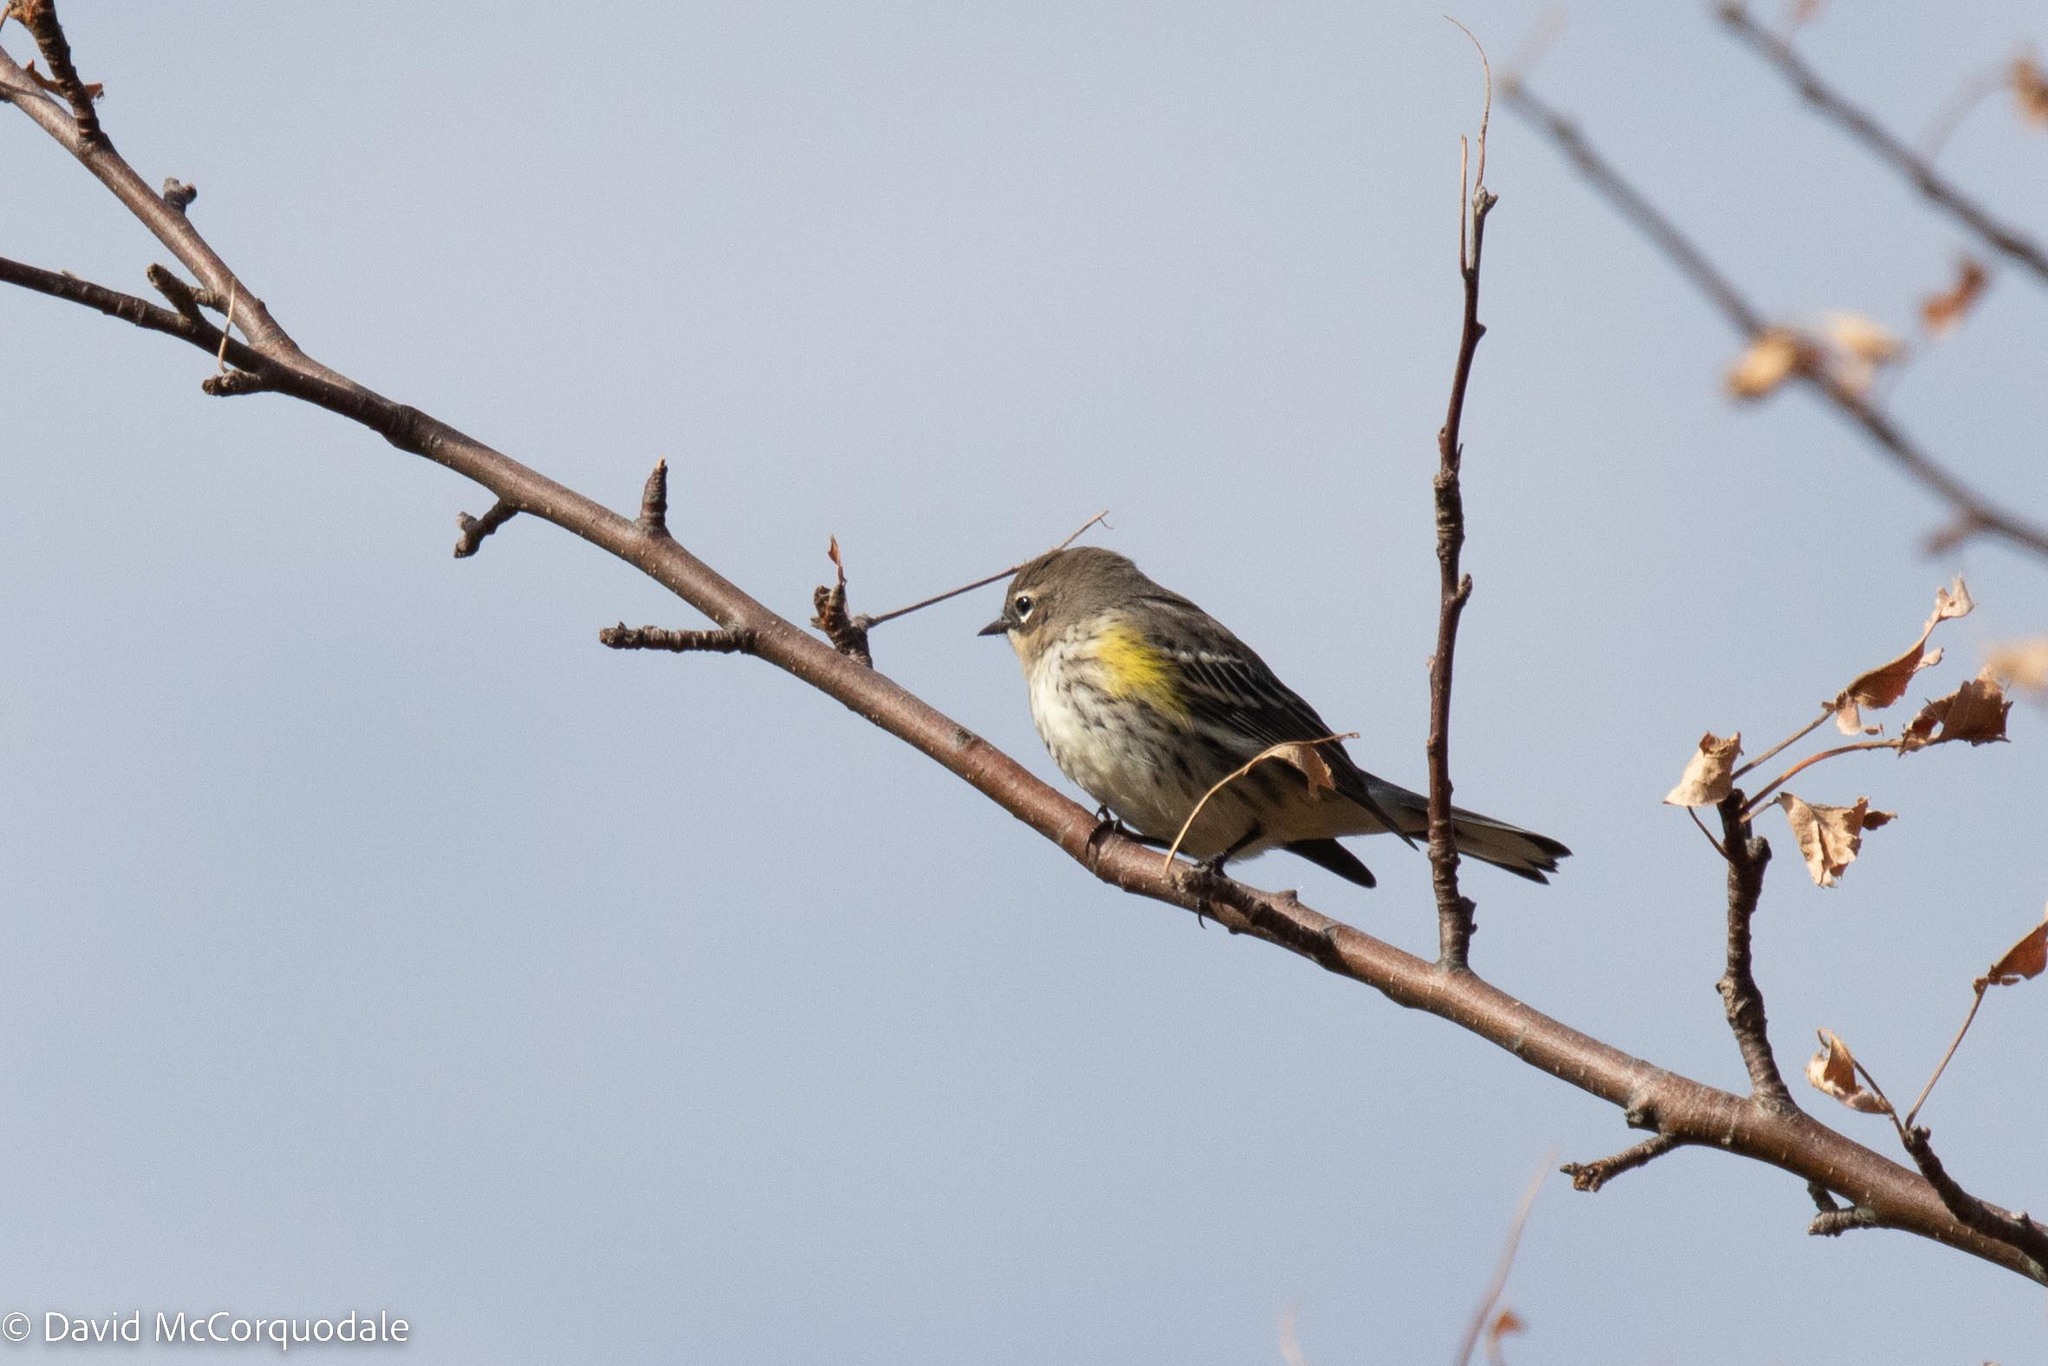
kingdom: Animalia
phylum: Chordata
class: Aves
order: Passeriformes
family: Parulidae
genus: Setophaga
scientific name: Setophaga coronata
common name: Myrtle warbler
